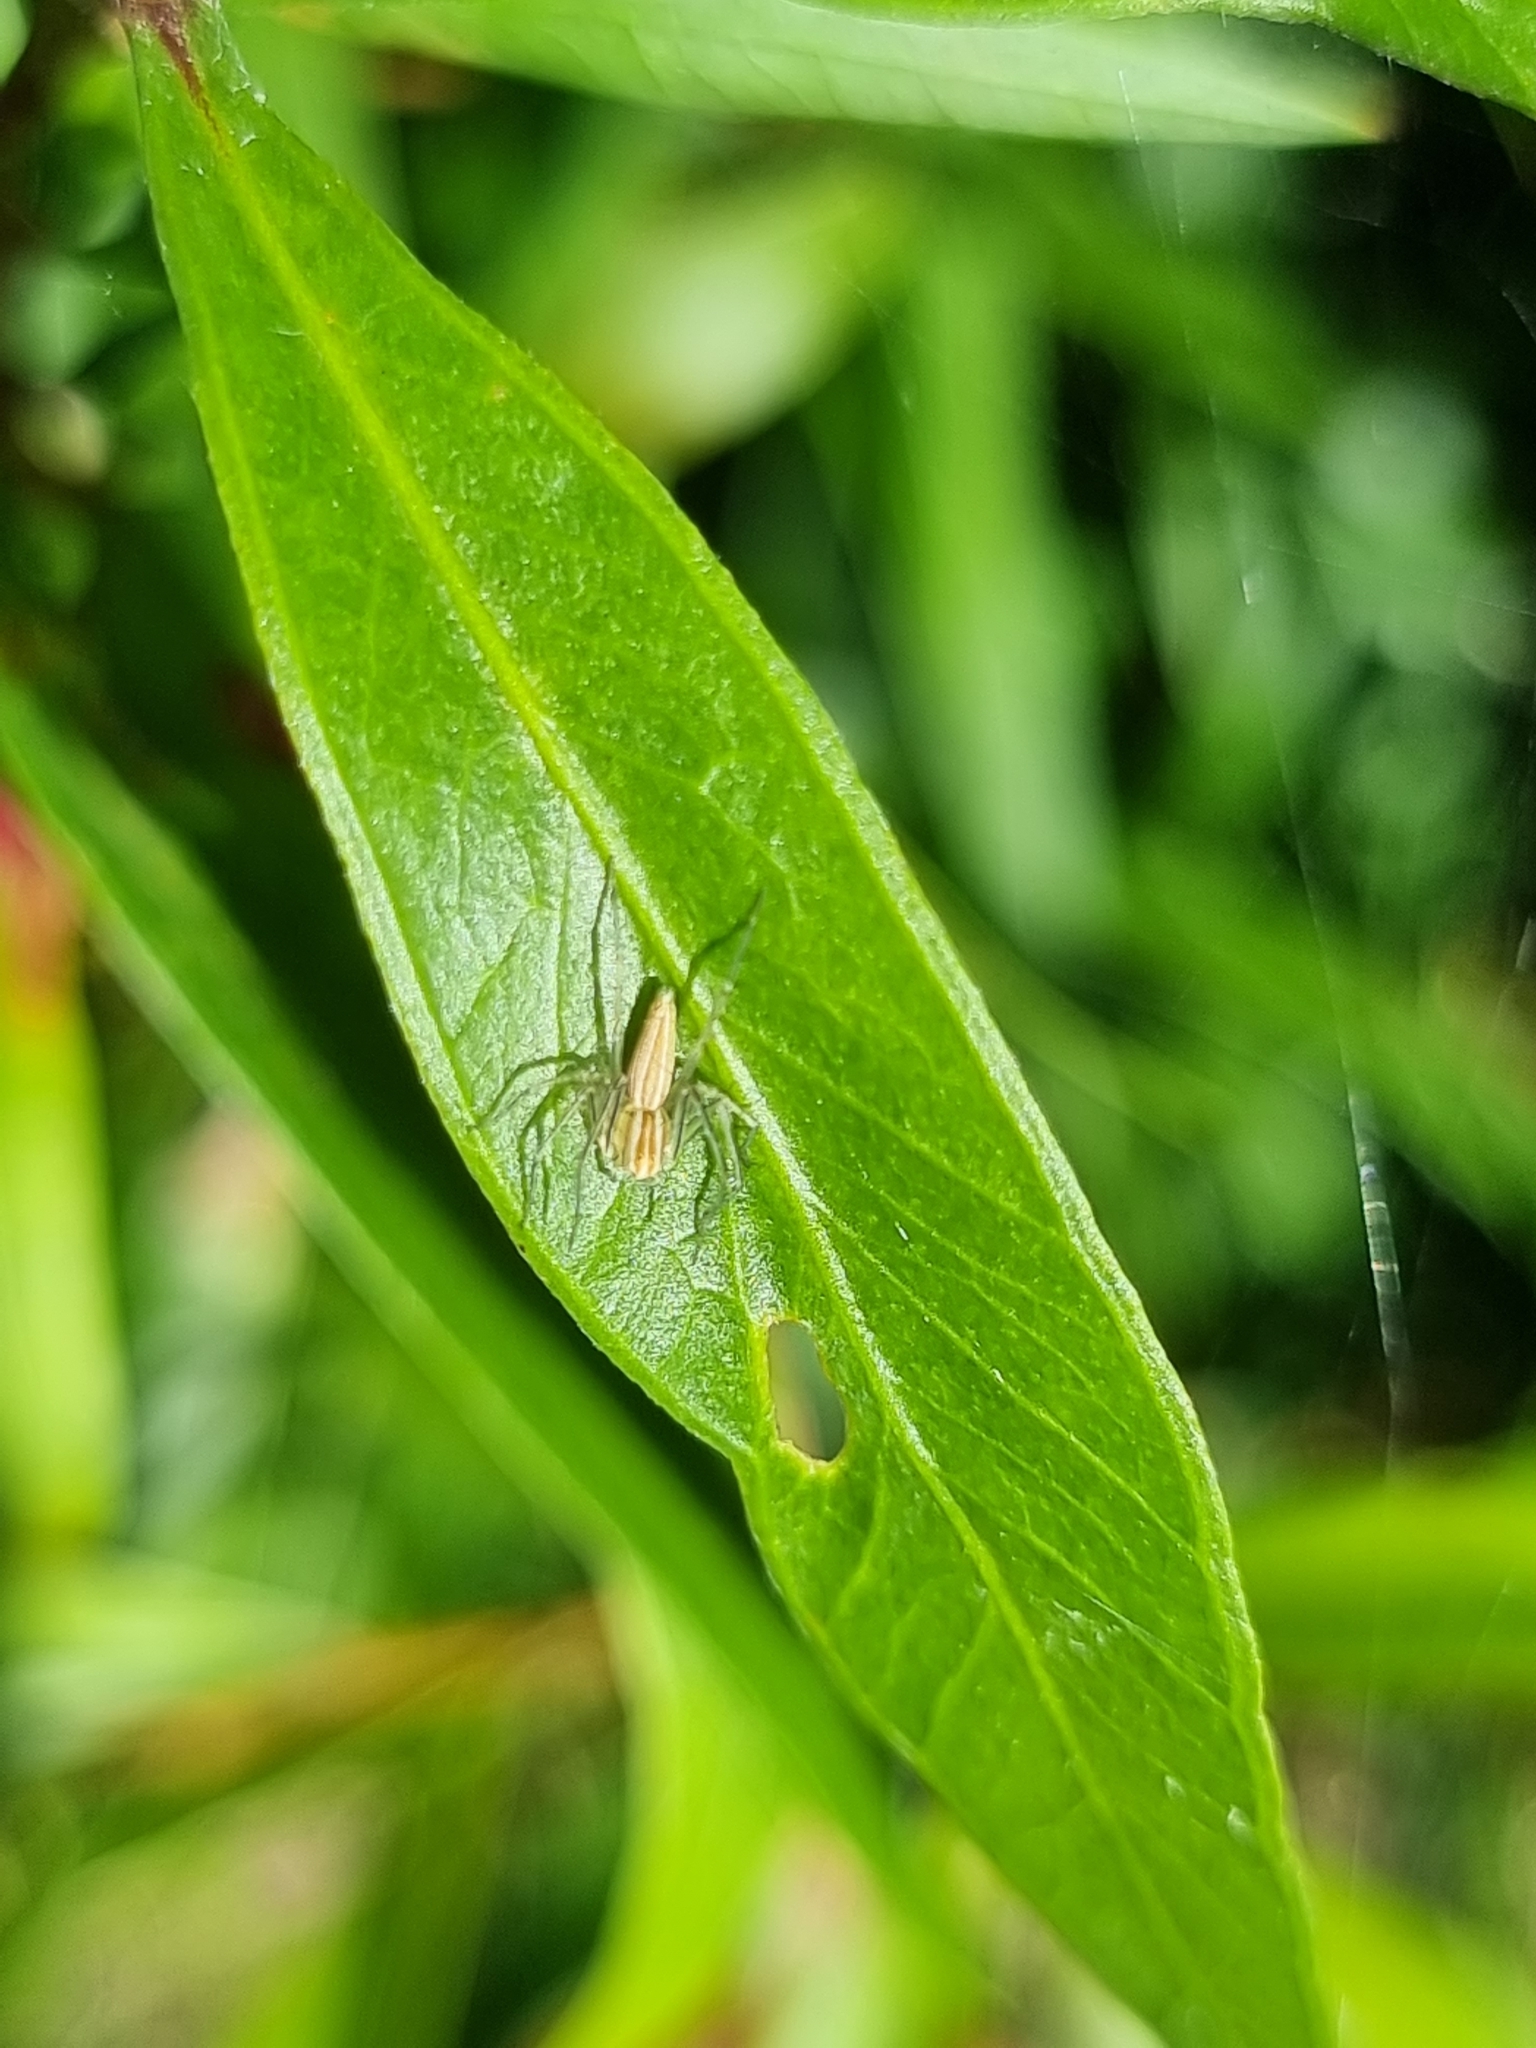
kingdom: Animalia
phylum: Arthropoda
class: Arachnida
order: Araneae
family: Oxyopidae
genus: Oxyopes
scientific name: Oxyopes macilentus
